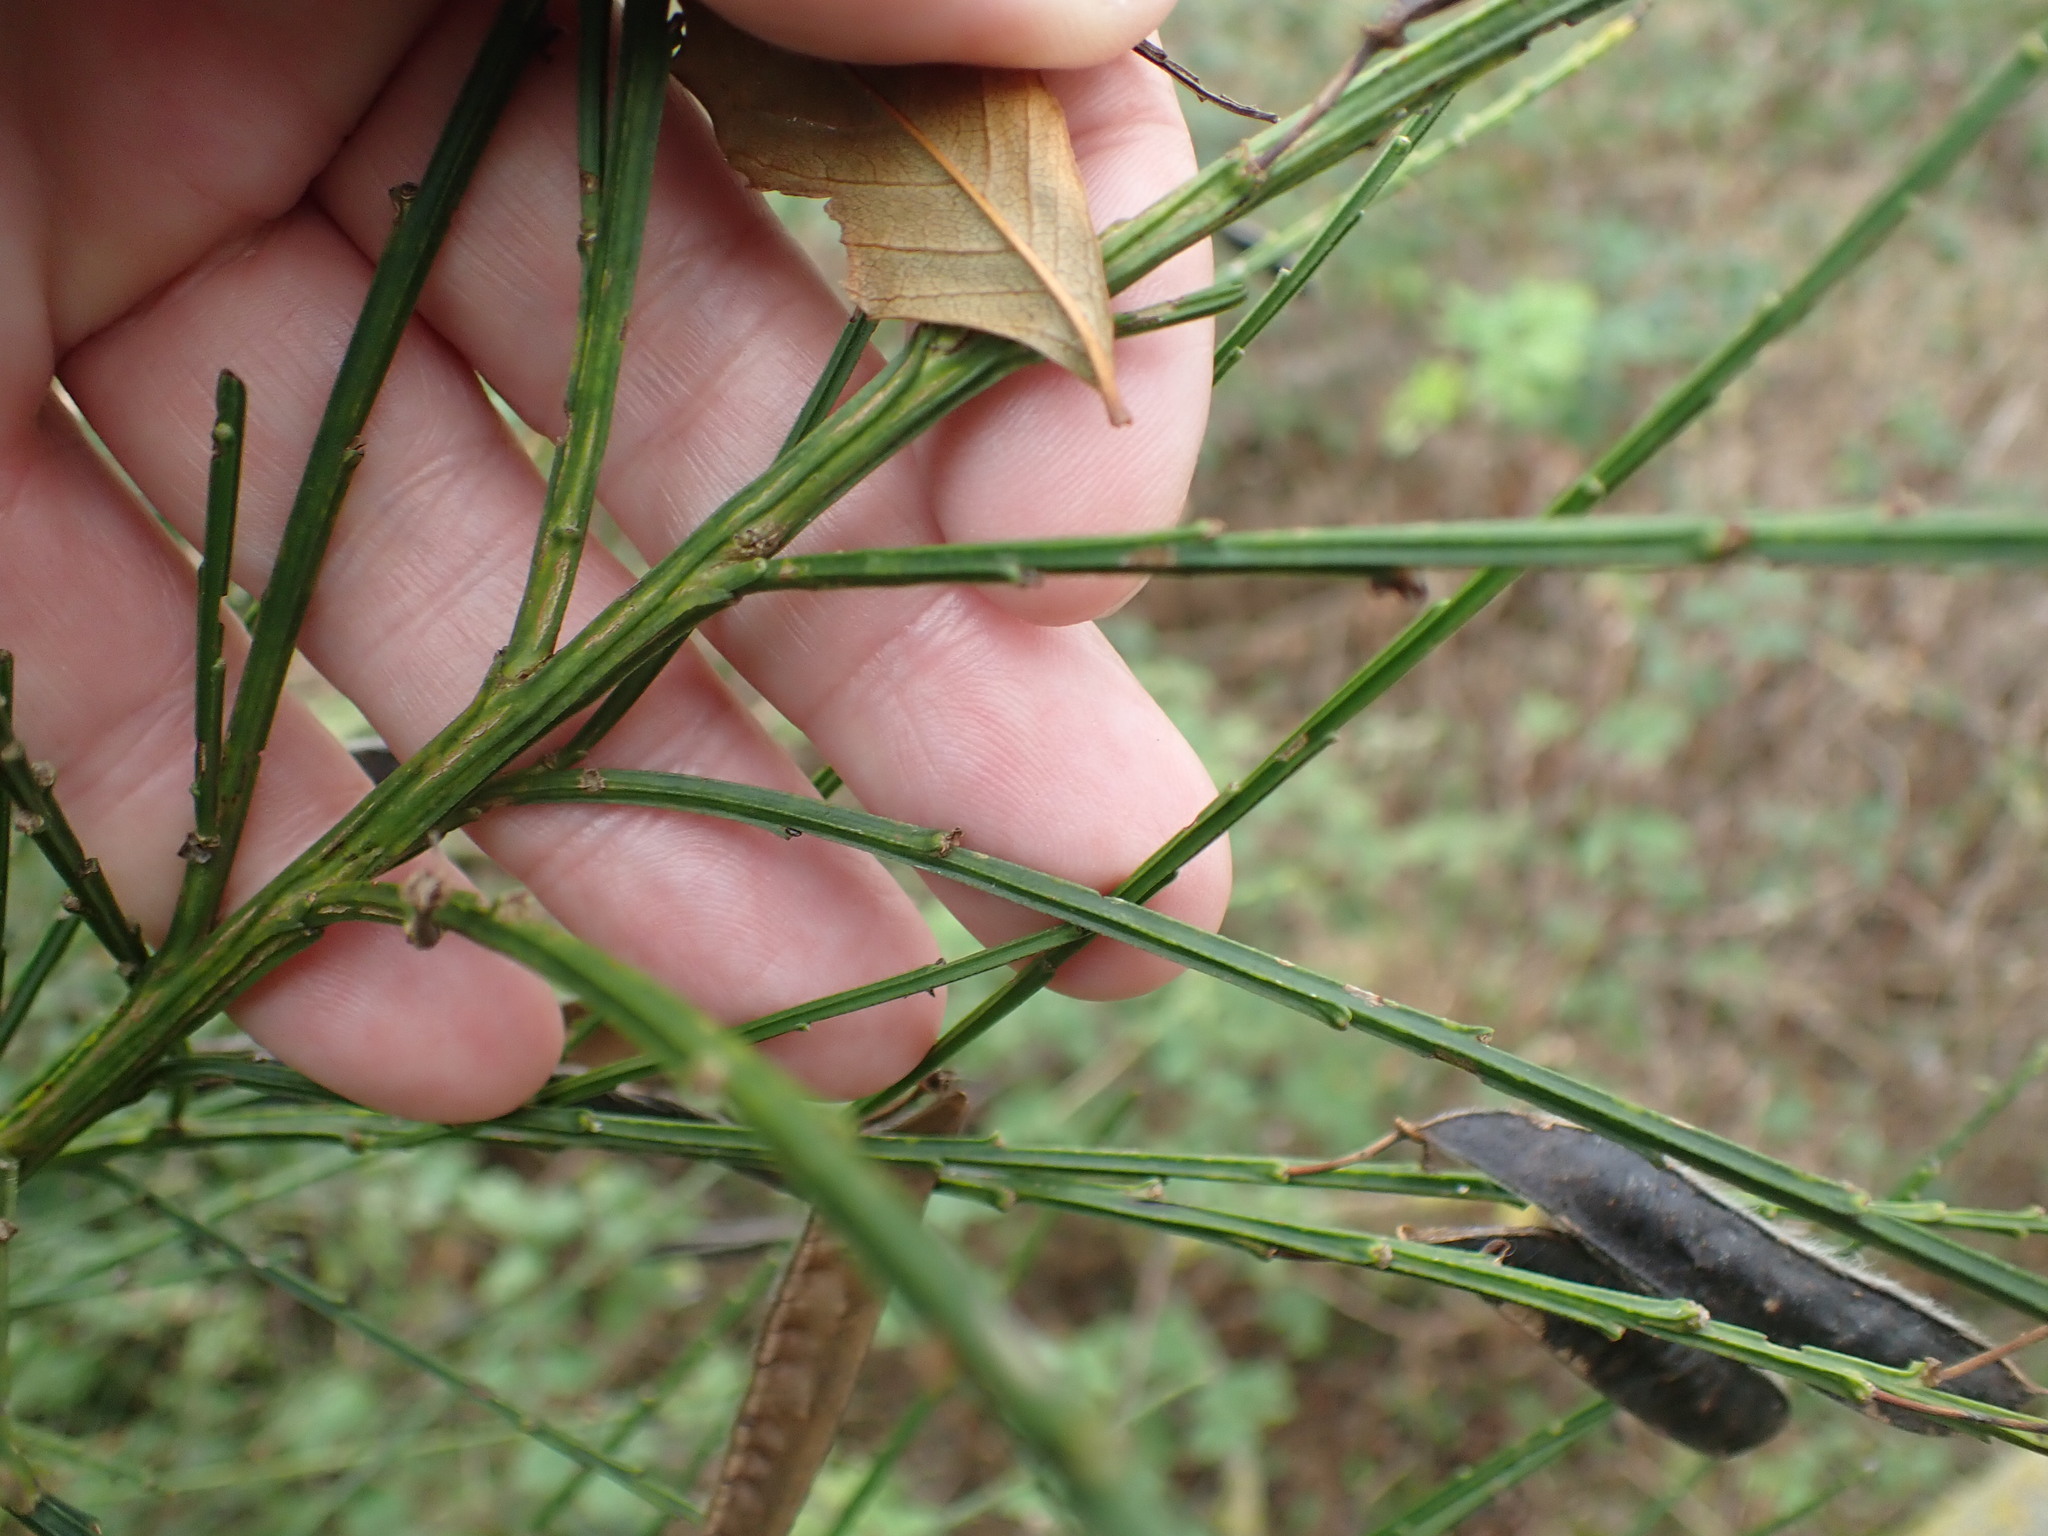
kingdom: Plantae
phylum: Tracheophyta
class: Magnoliopsida
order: Fabales
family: Fabaceae
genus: Cytisus
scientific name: Cytisus scoparius
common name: Scotch broom
